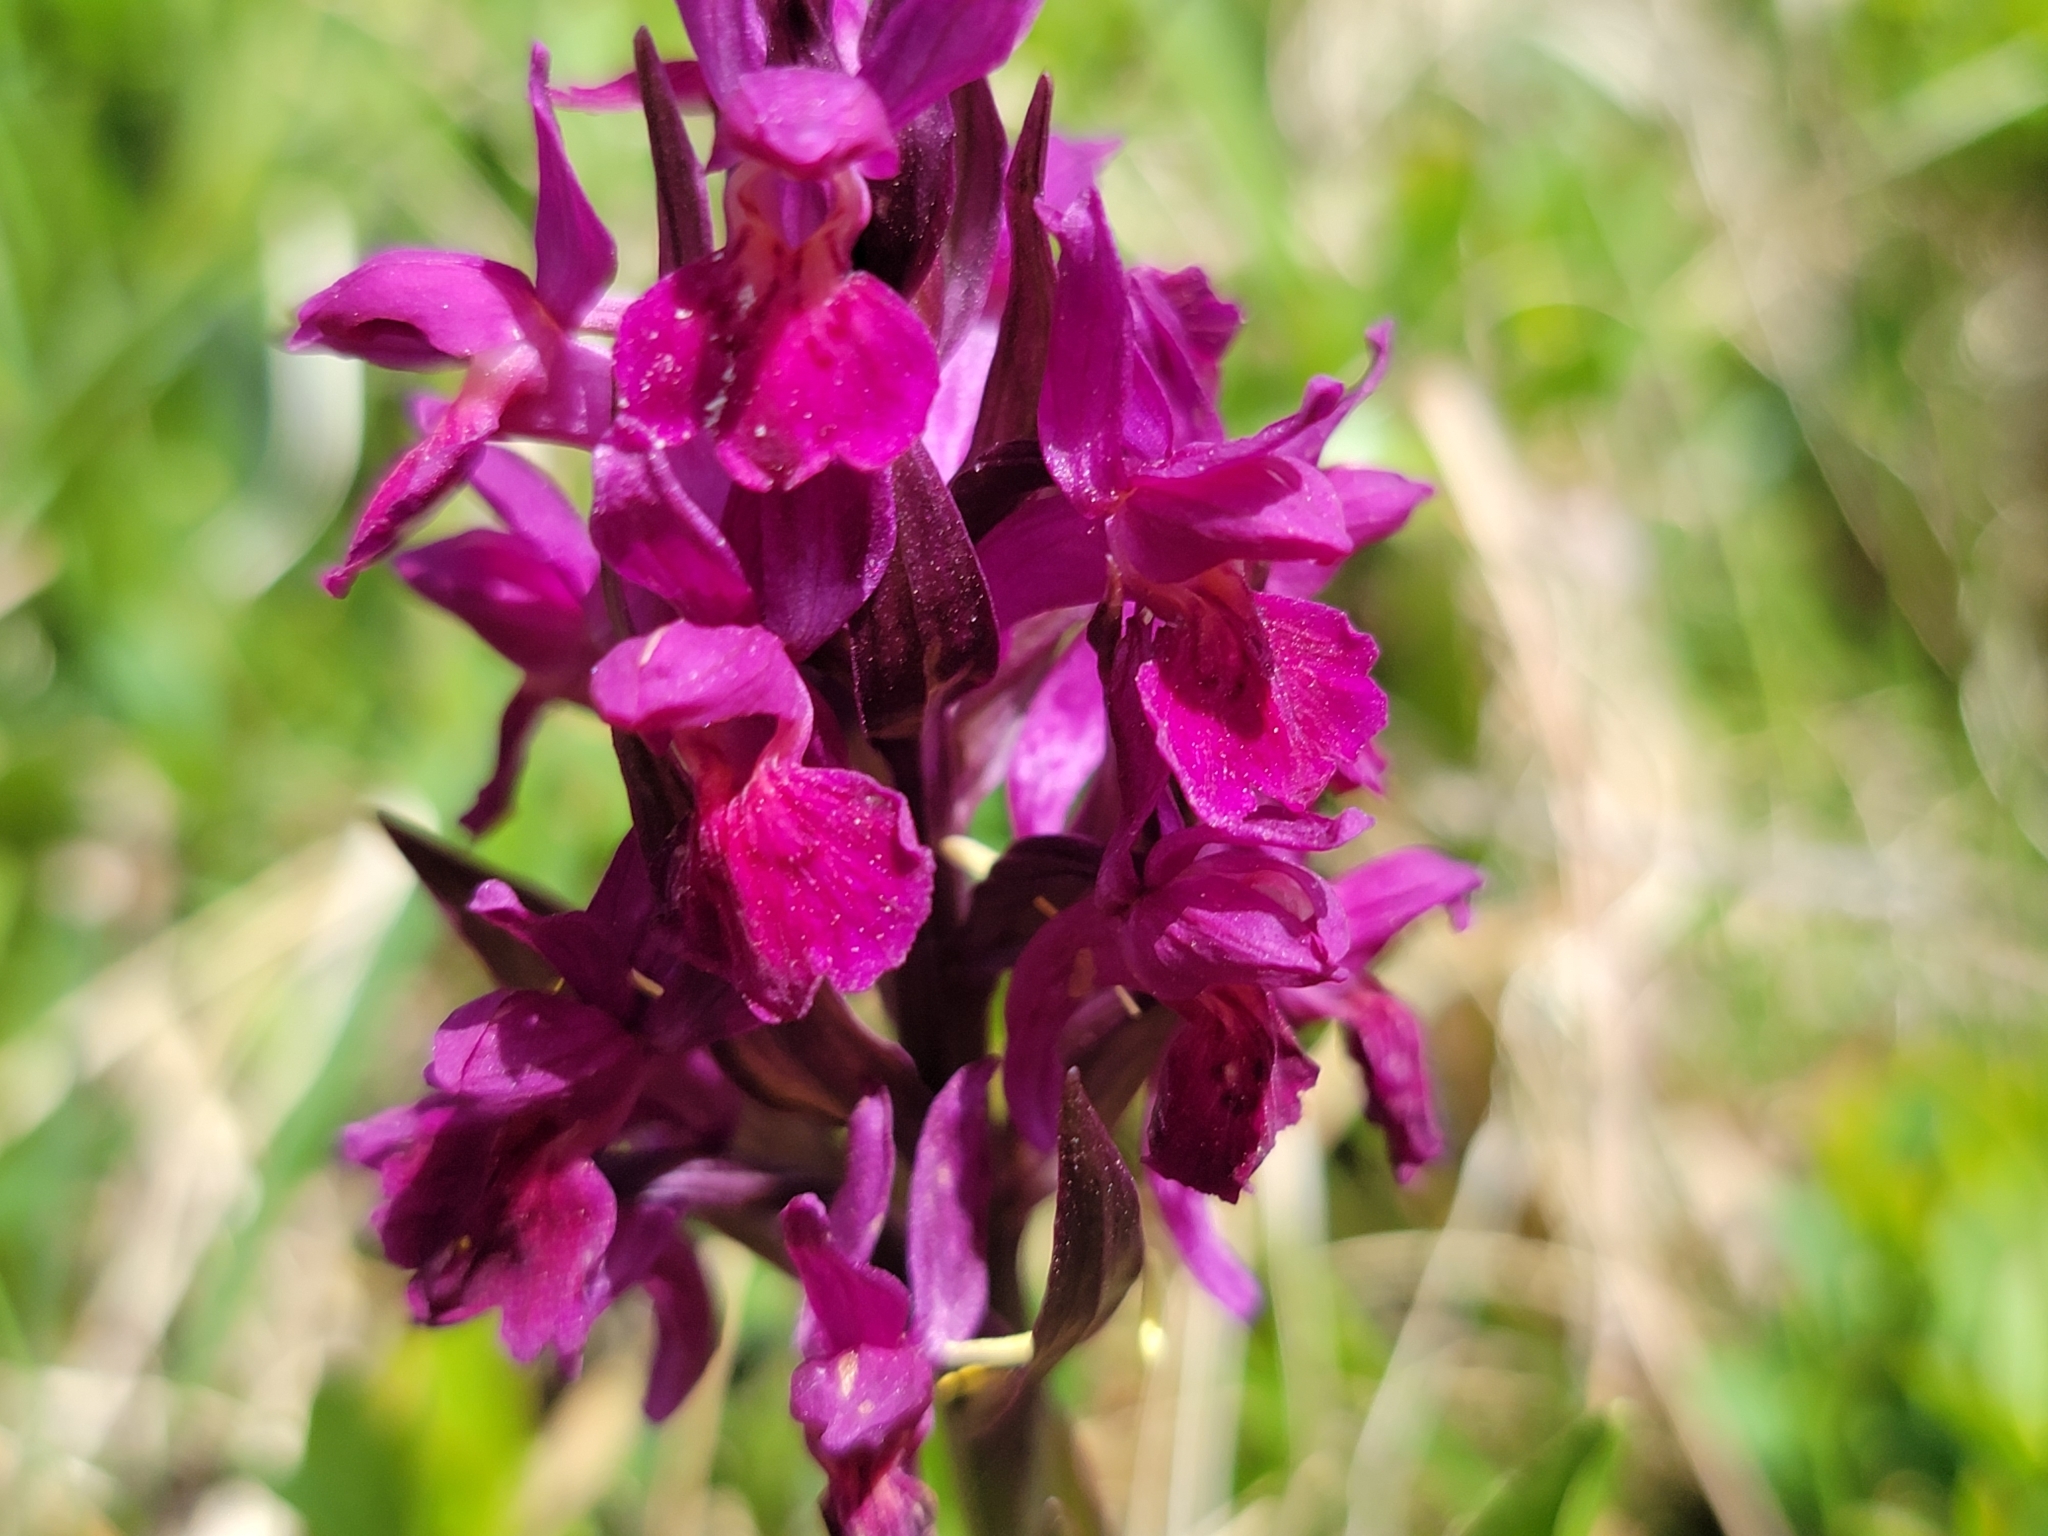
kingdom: Plantae
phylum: Tracheophyta
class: Liliopsida
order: Asparagales
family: Orchidaceae
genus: Dactylorhiza
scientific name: Dactylorhiza sambucina
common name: Elder-flowered orchid
